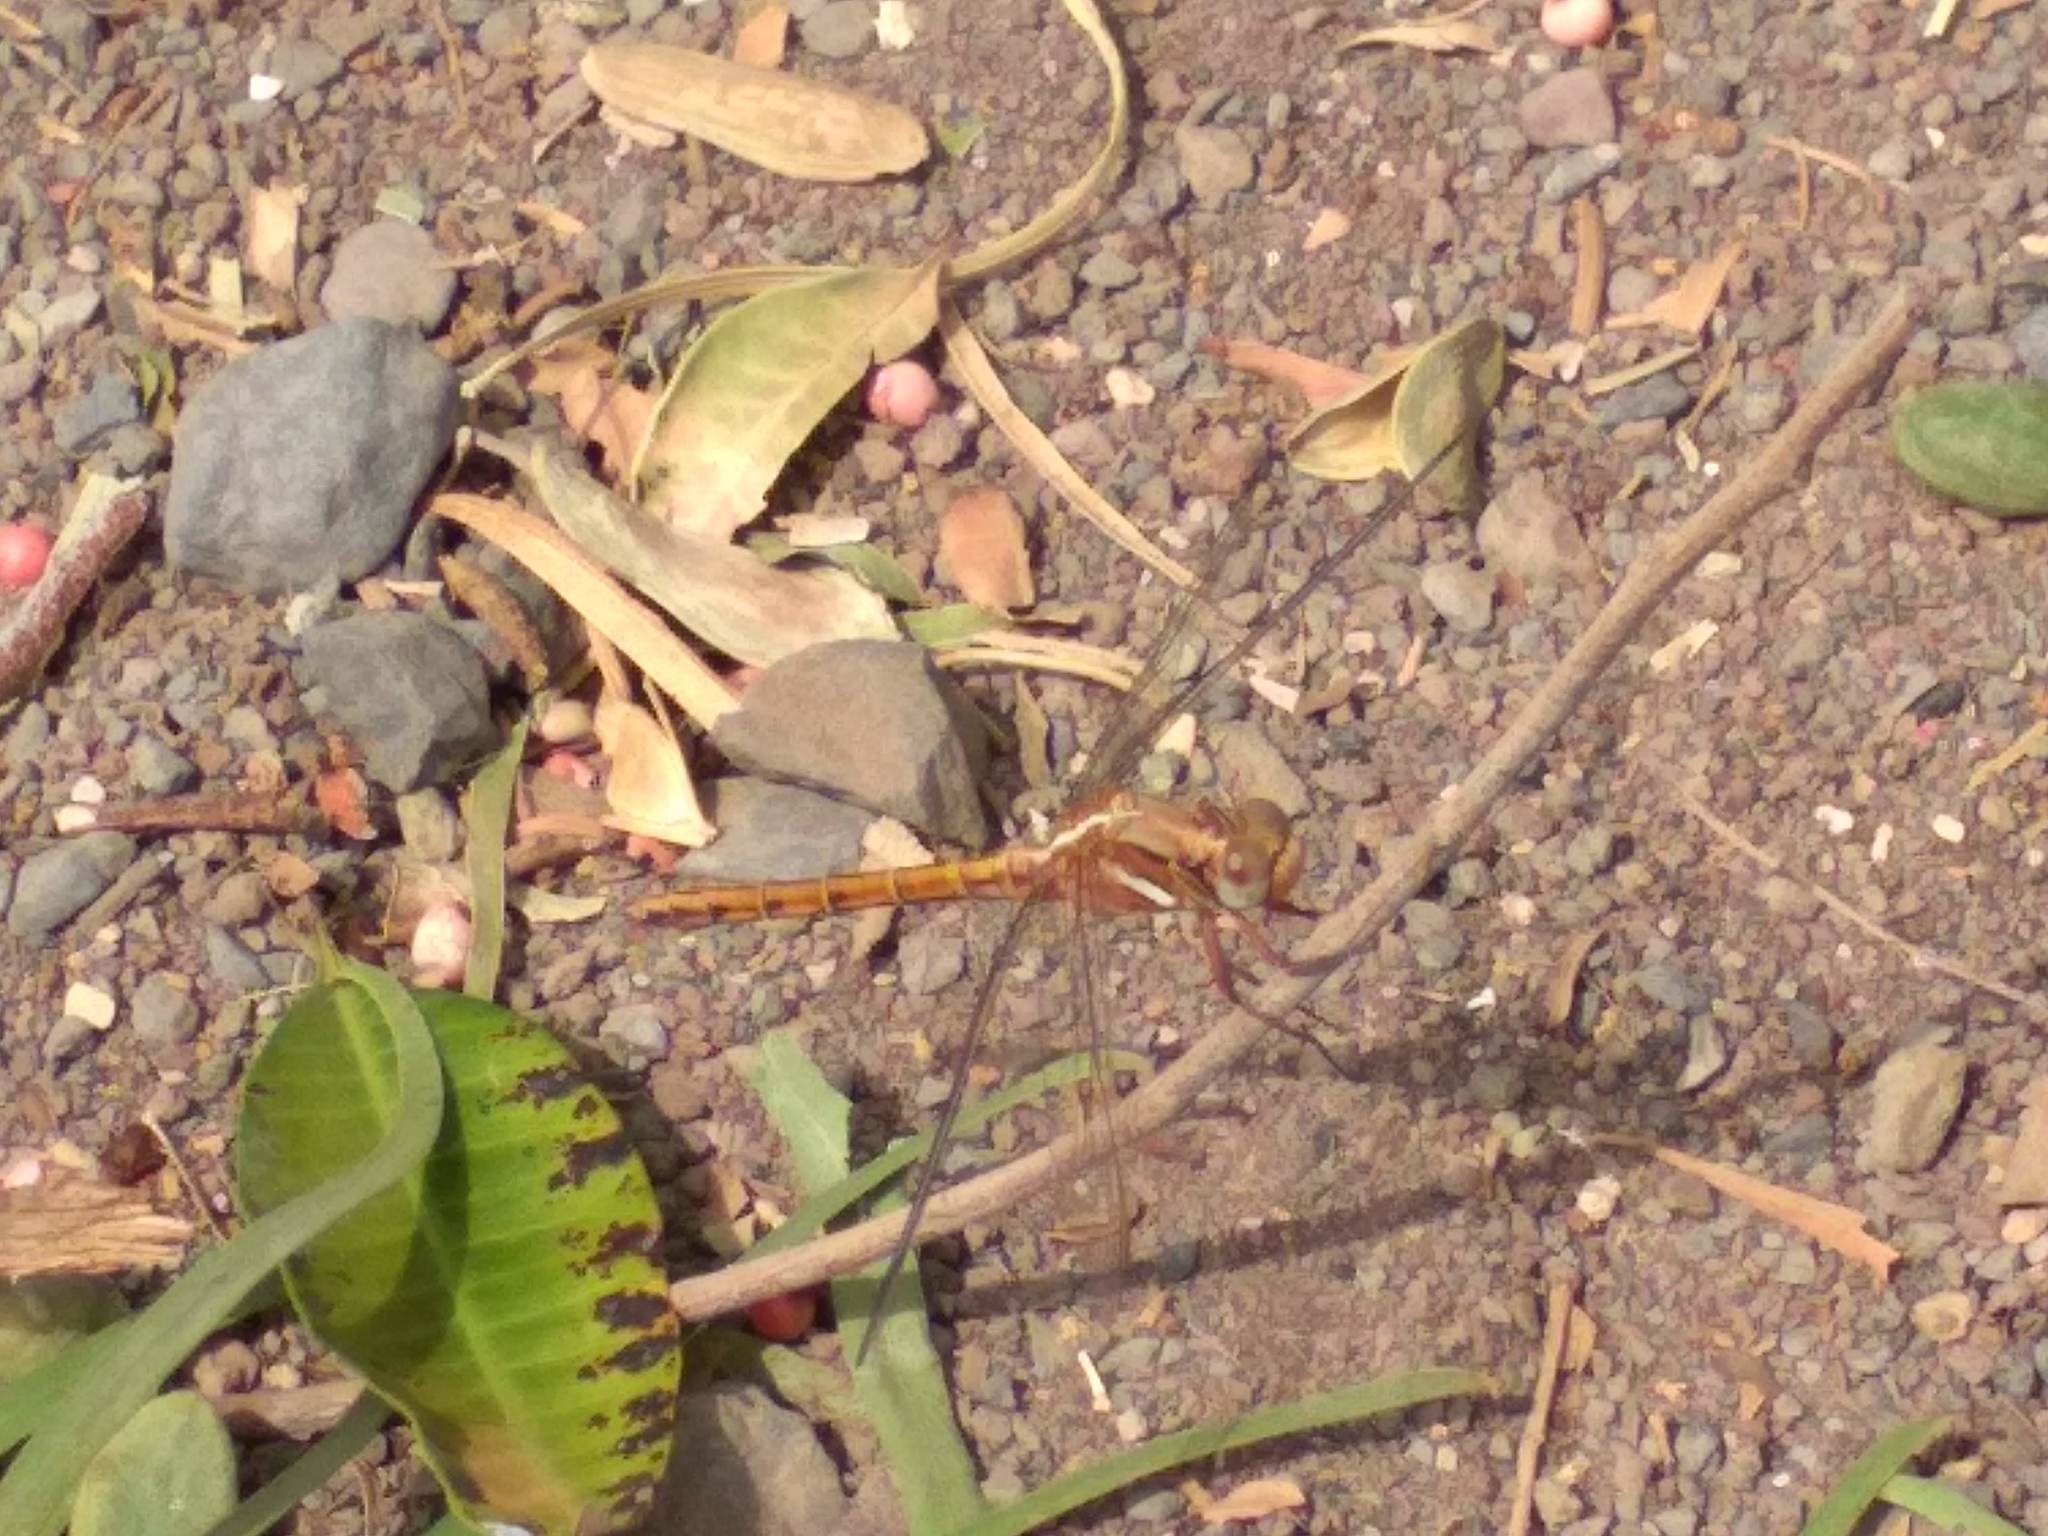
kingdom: Animalia
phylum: Arthropoda
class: Insecta
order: Odonata
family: Libellulidae
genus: Orthetrum
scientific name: Orthetrum chrysostigma
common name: Epaulet skimmer
